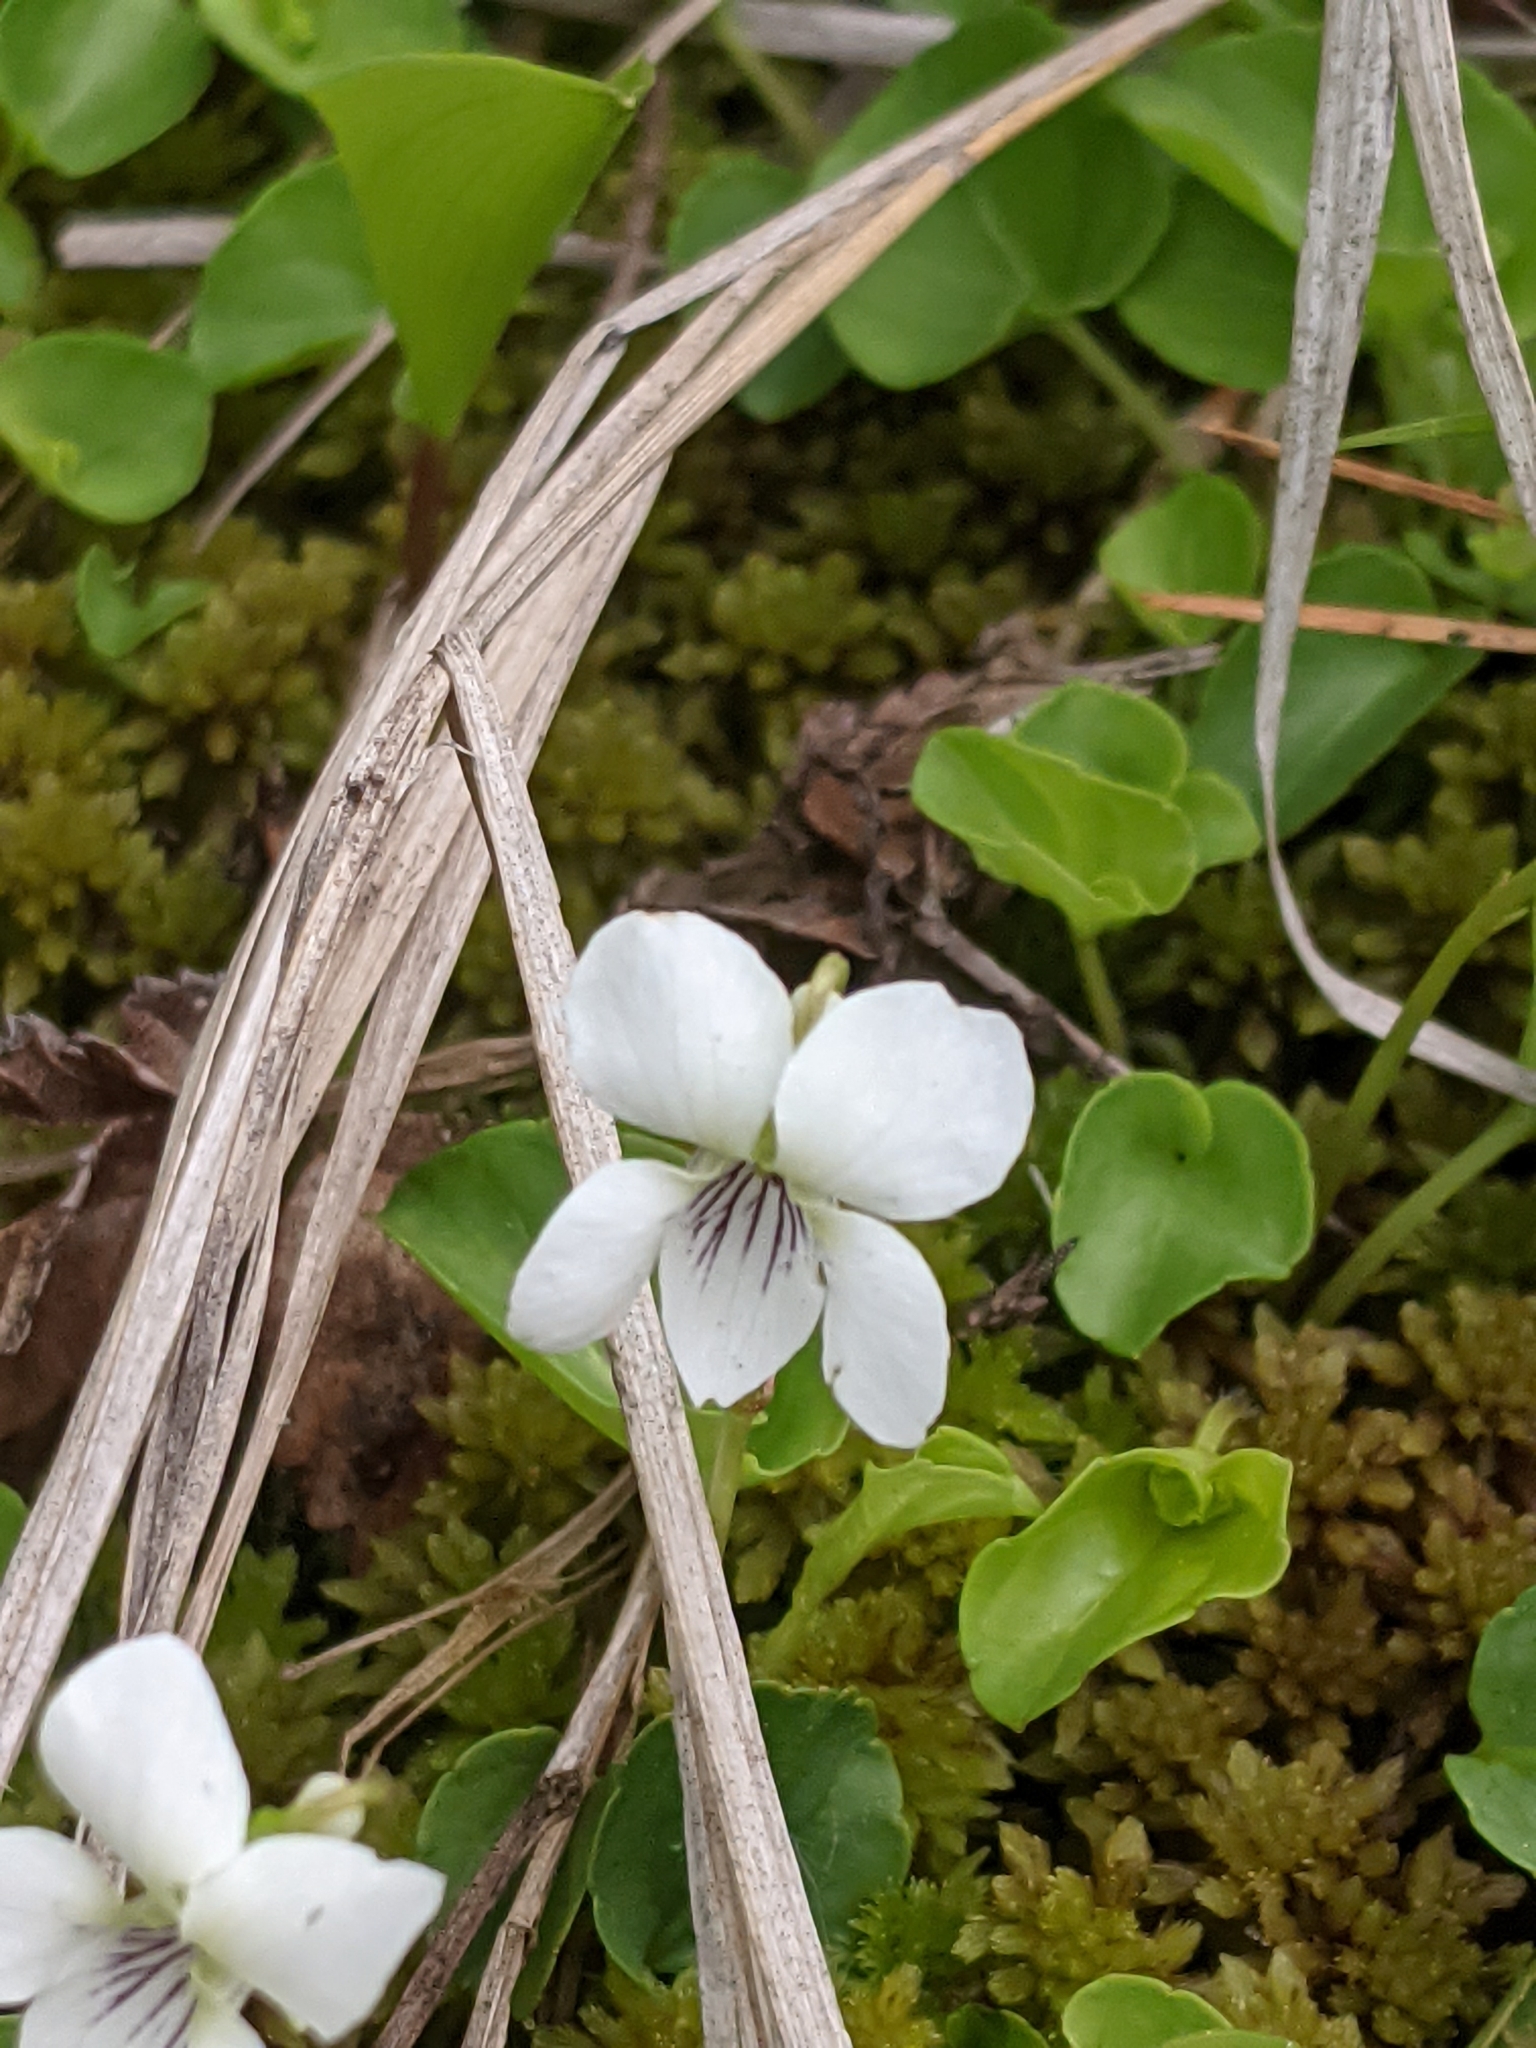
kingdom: Plantae
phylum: Tracheophyta
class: Magnoliopsida
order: Malpighiales
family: Violaceae
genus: Viola
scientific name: Viola minuscula
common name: Northern white violet
